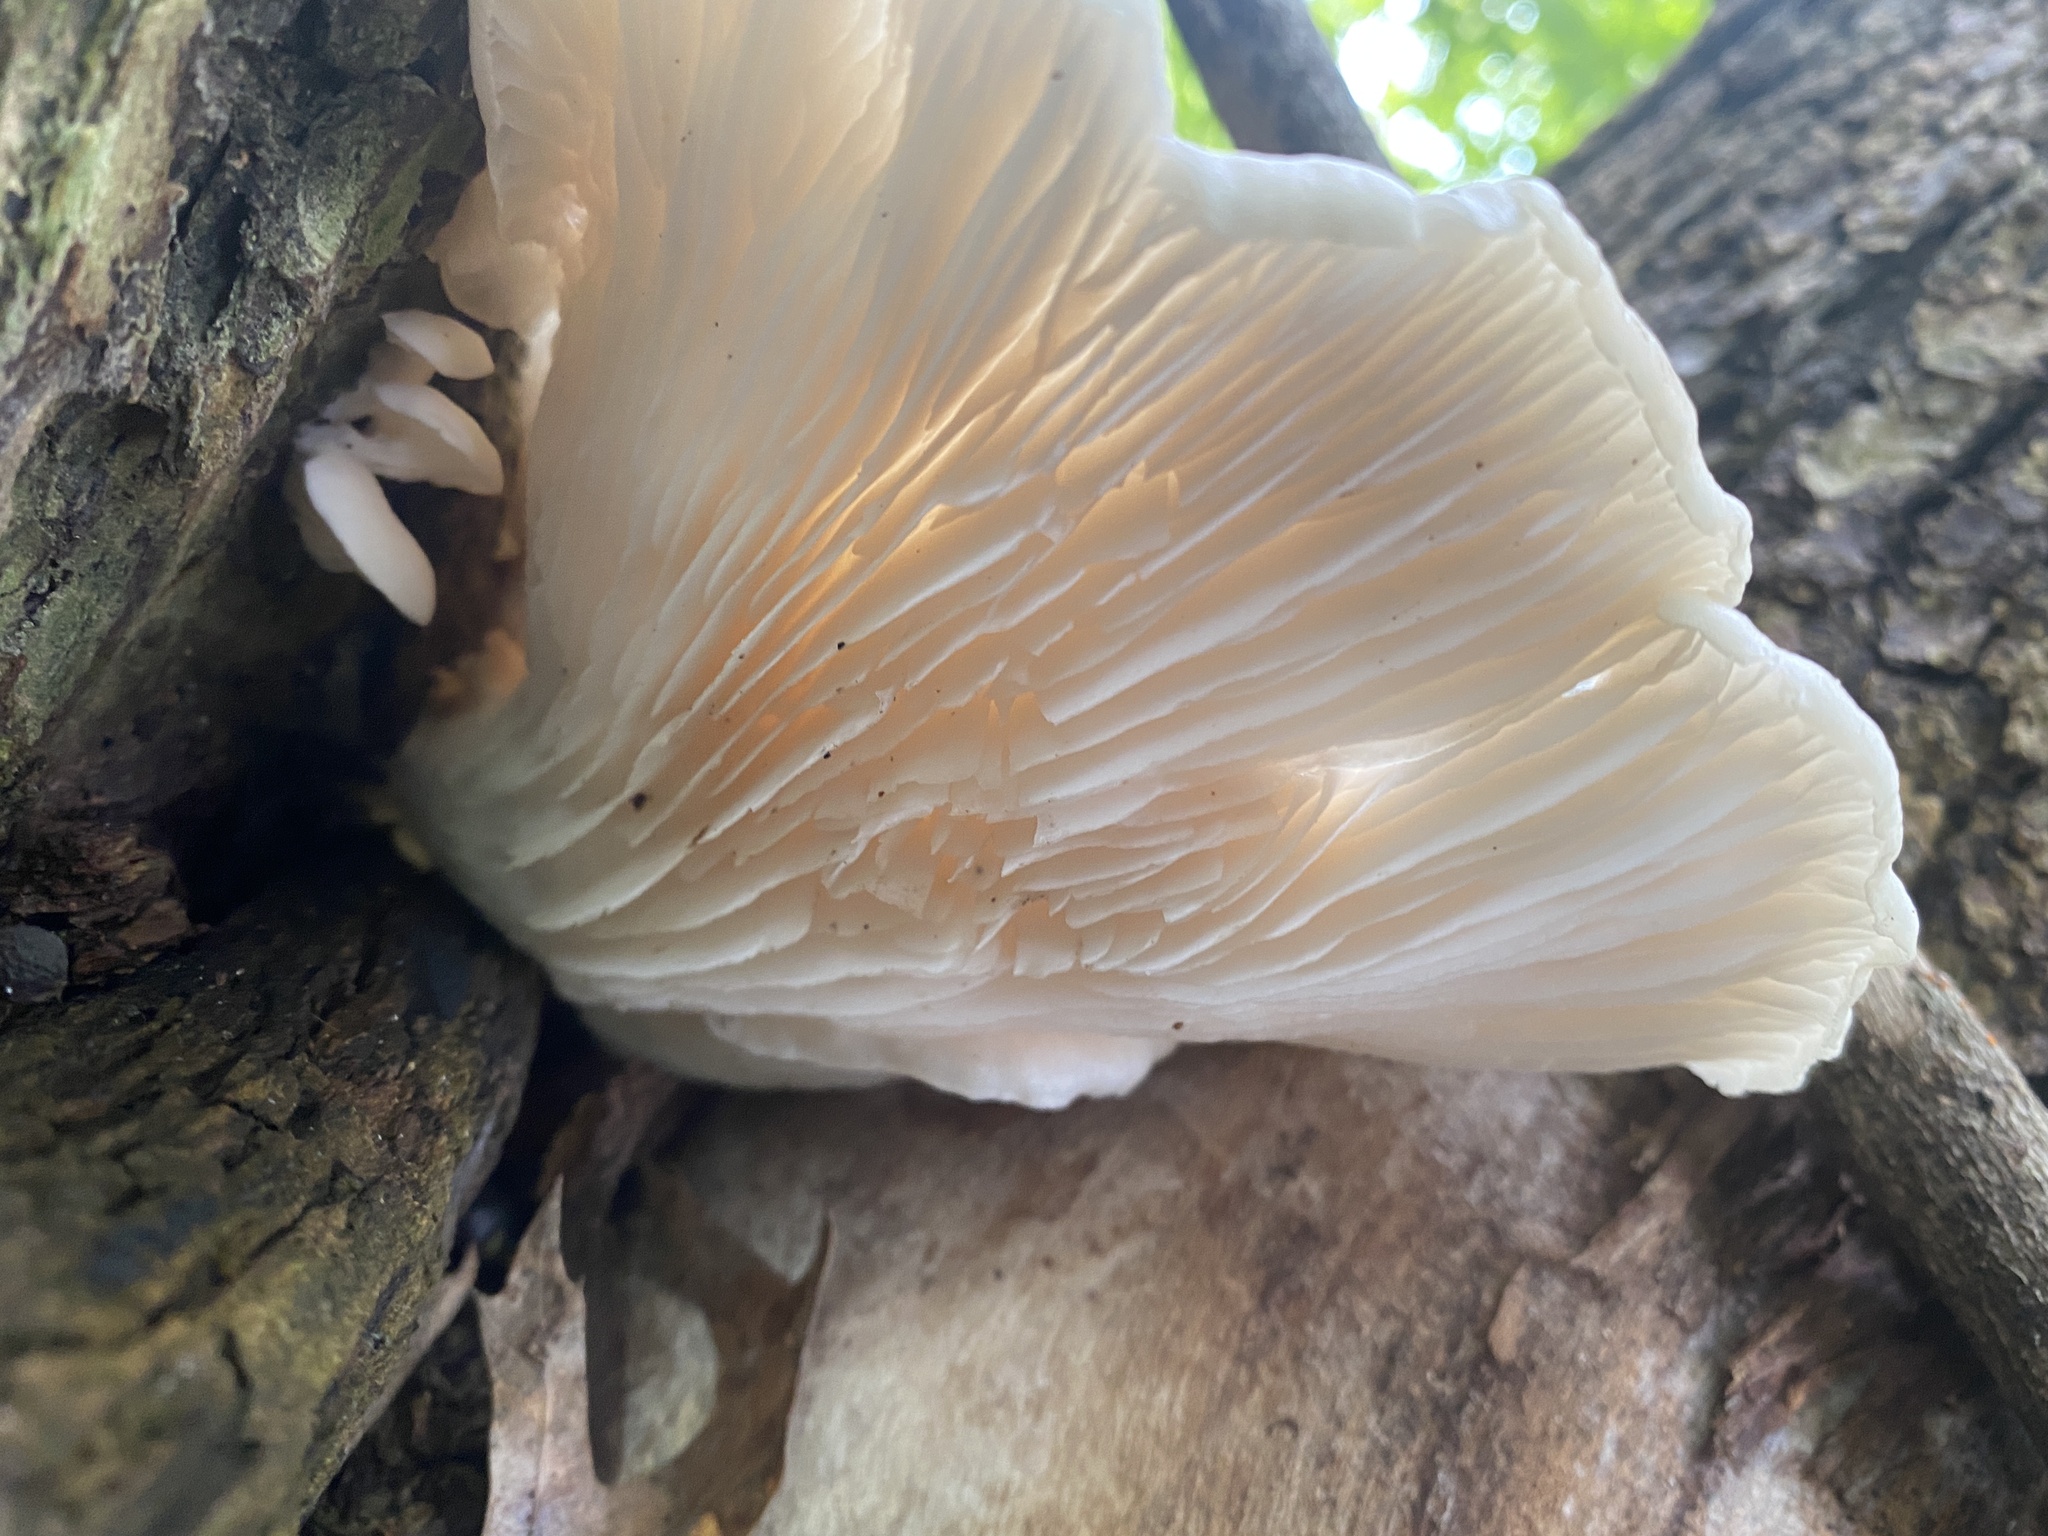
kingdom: Fungi
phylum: Basidiomycota
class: Agaricomycetes
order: Agaricales
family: Pleurotaceae
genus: Pleurotus
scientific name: Pleurotus ostreatus
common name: Oyster mushroom
